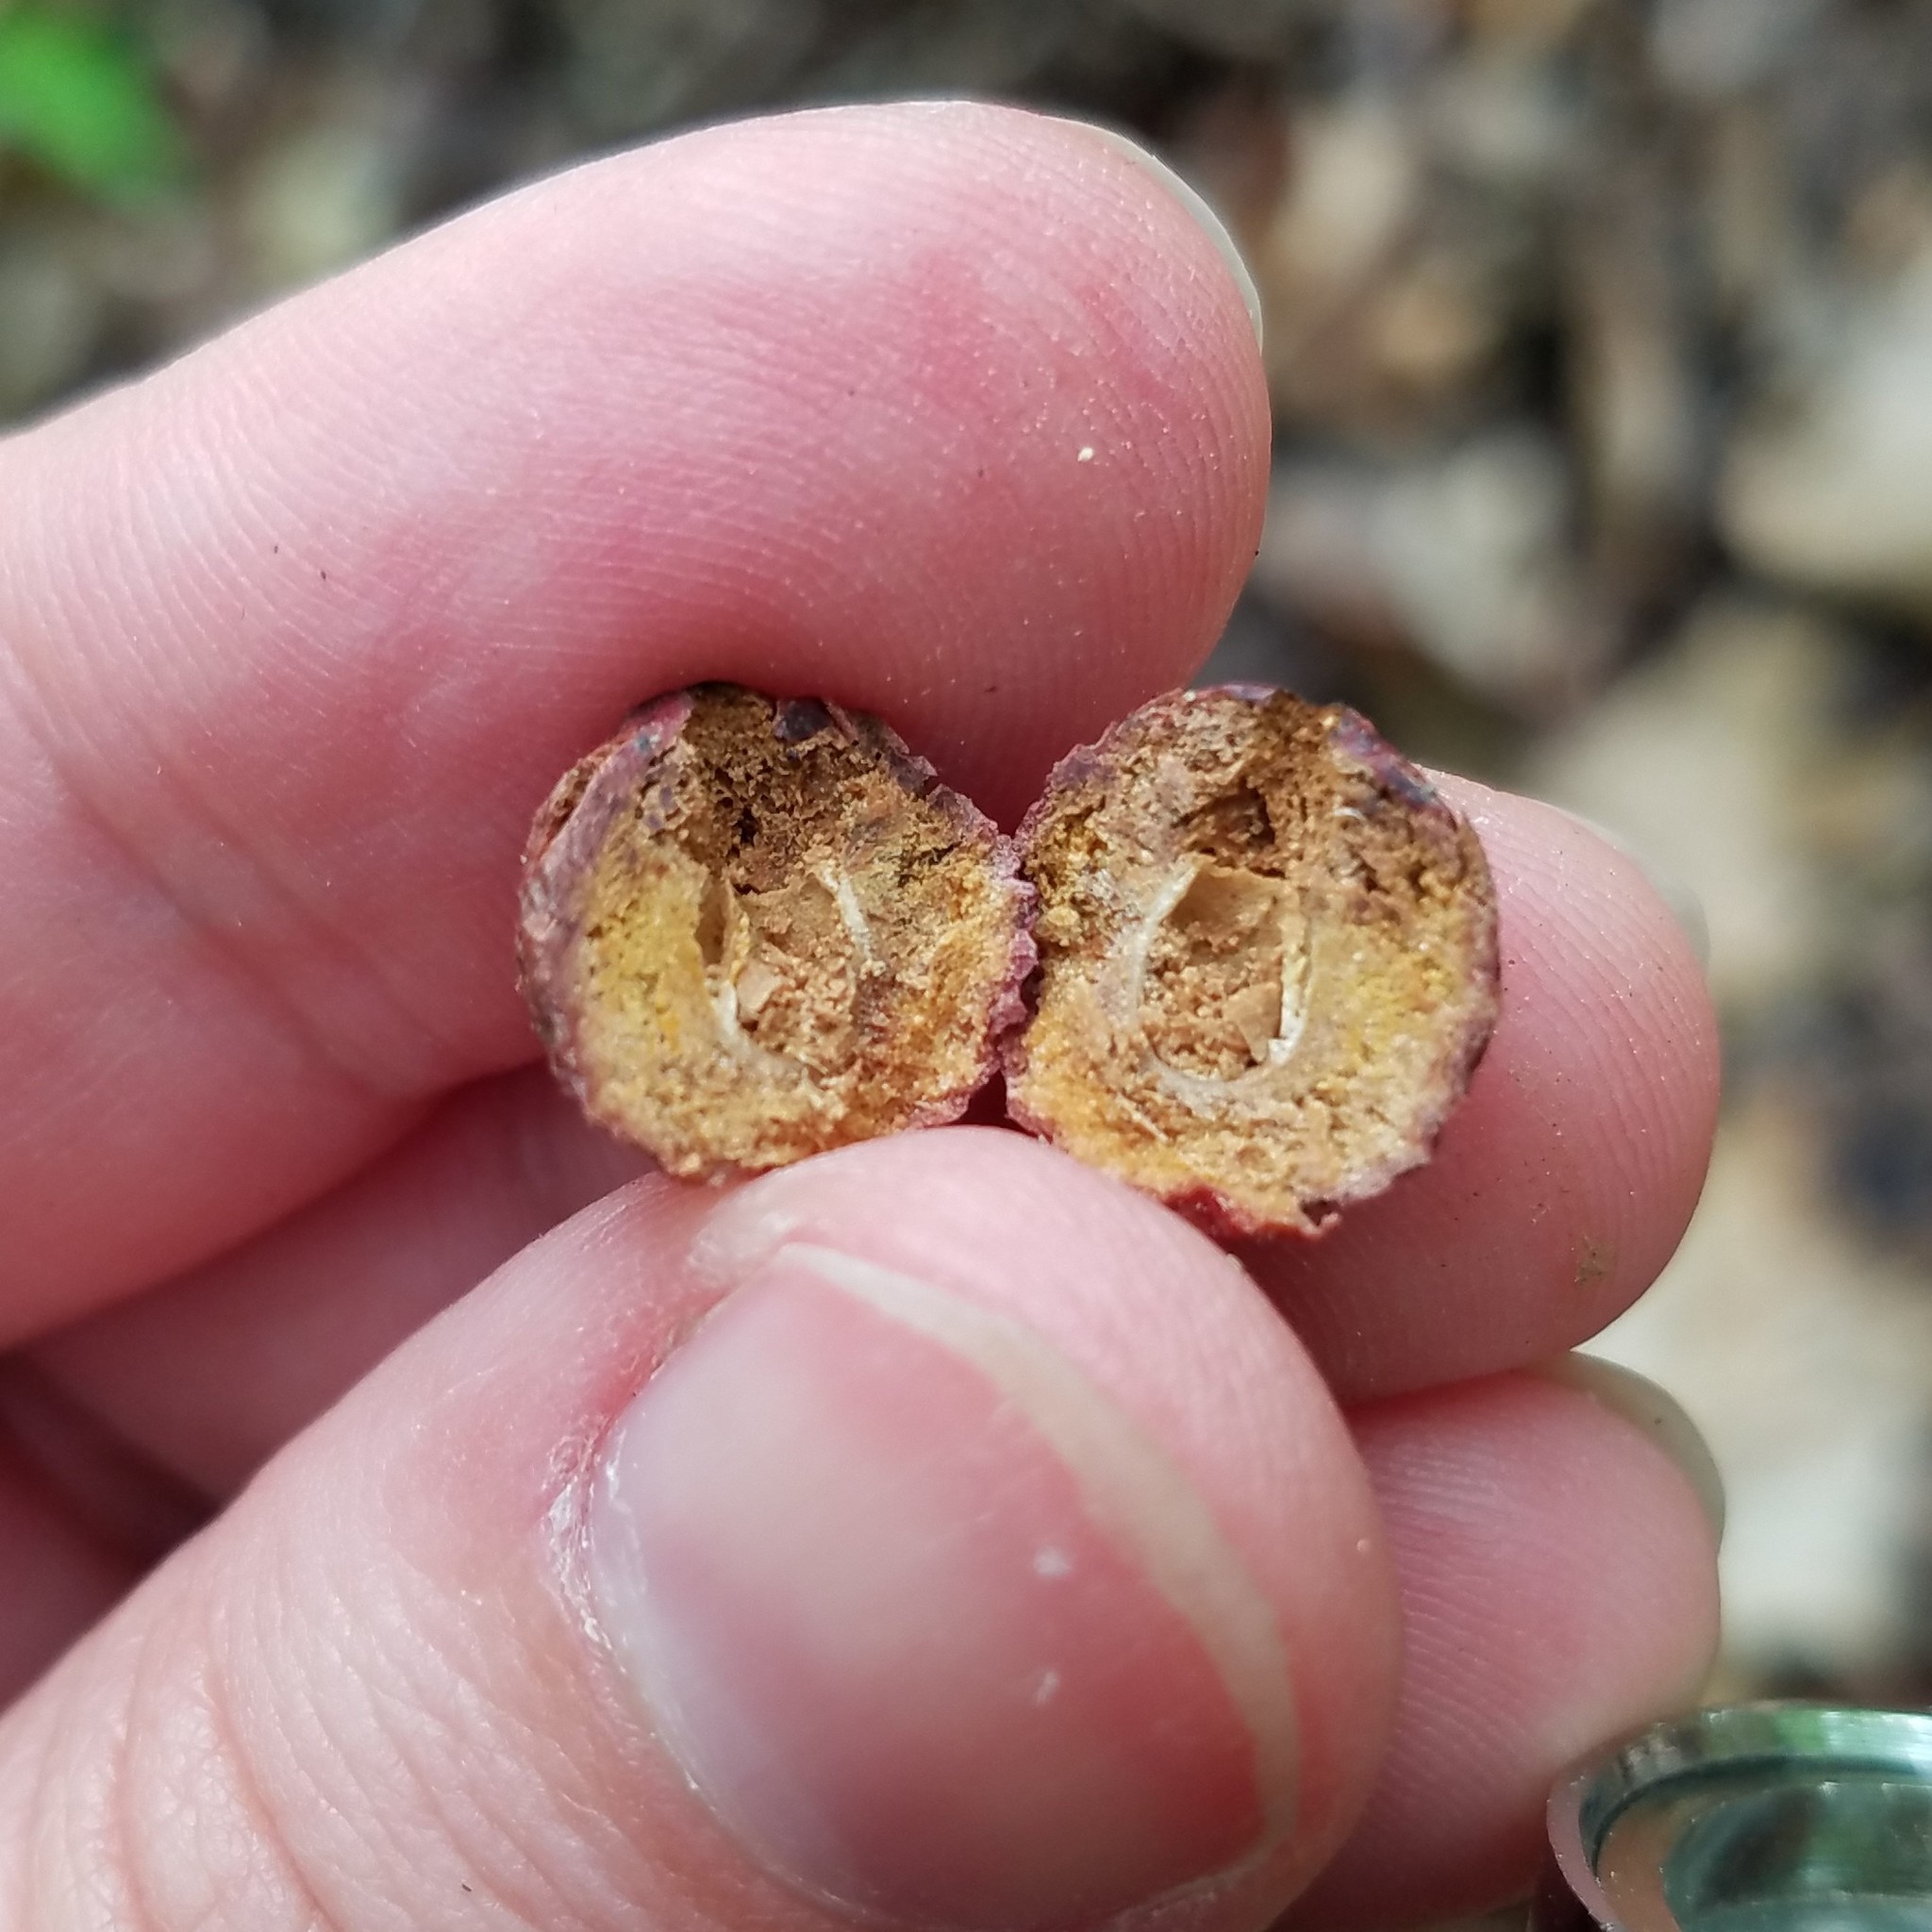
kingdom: Animalia
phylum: Arthropoda
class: Insecta
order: Hymenoptera
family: Cynipidae
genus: Disholcaspis
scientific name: Disholcaspis
